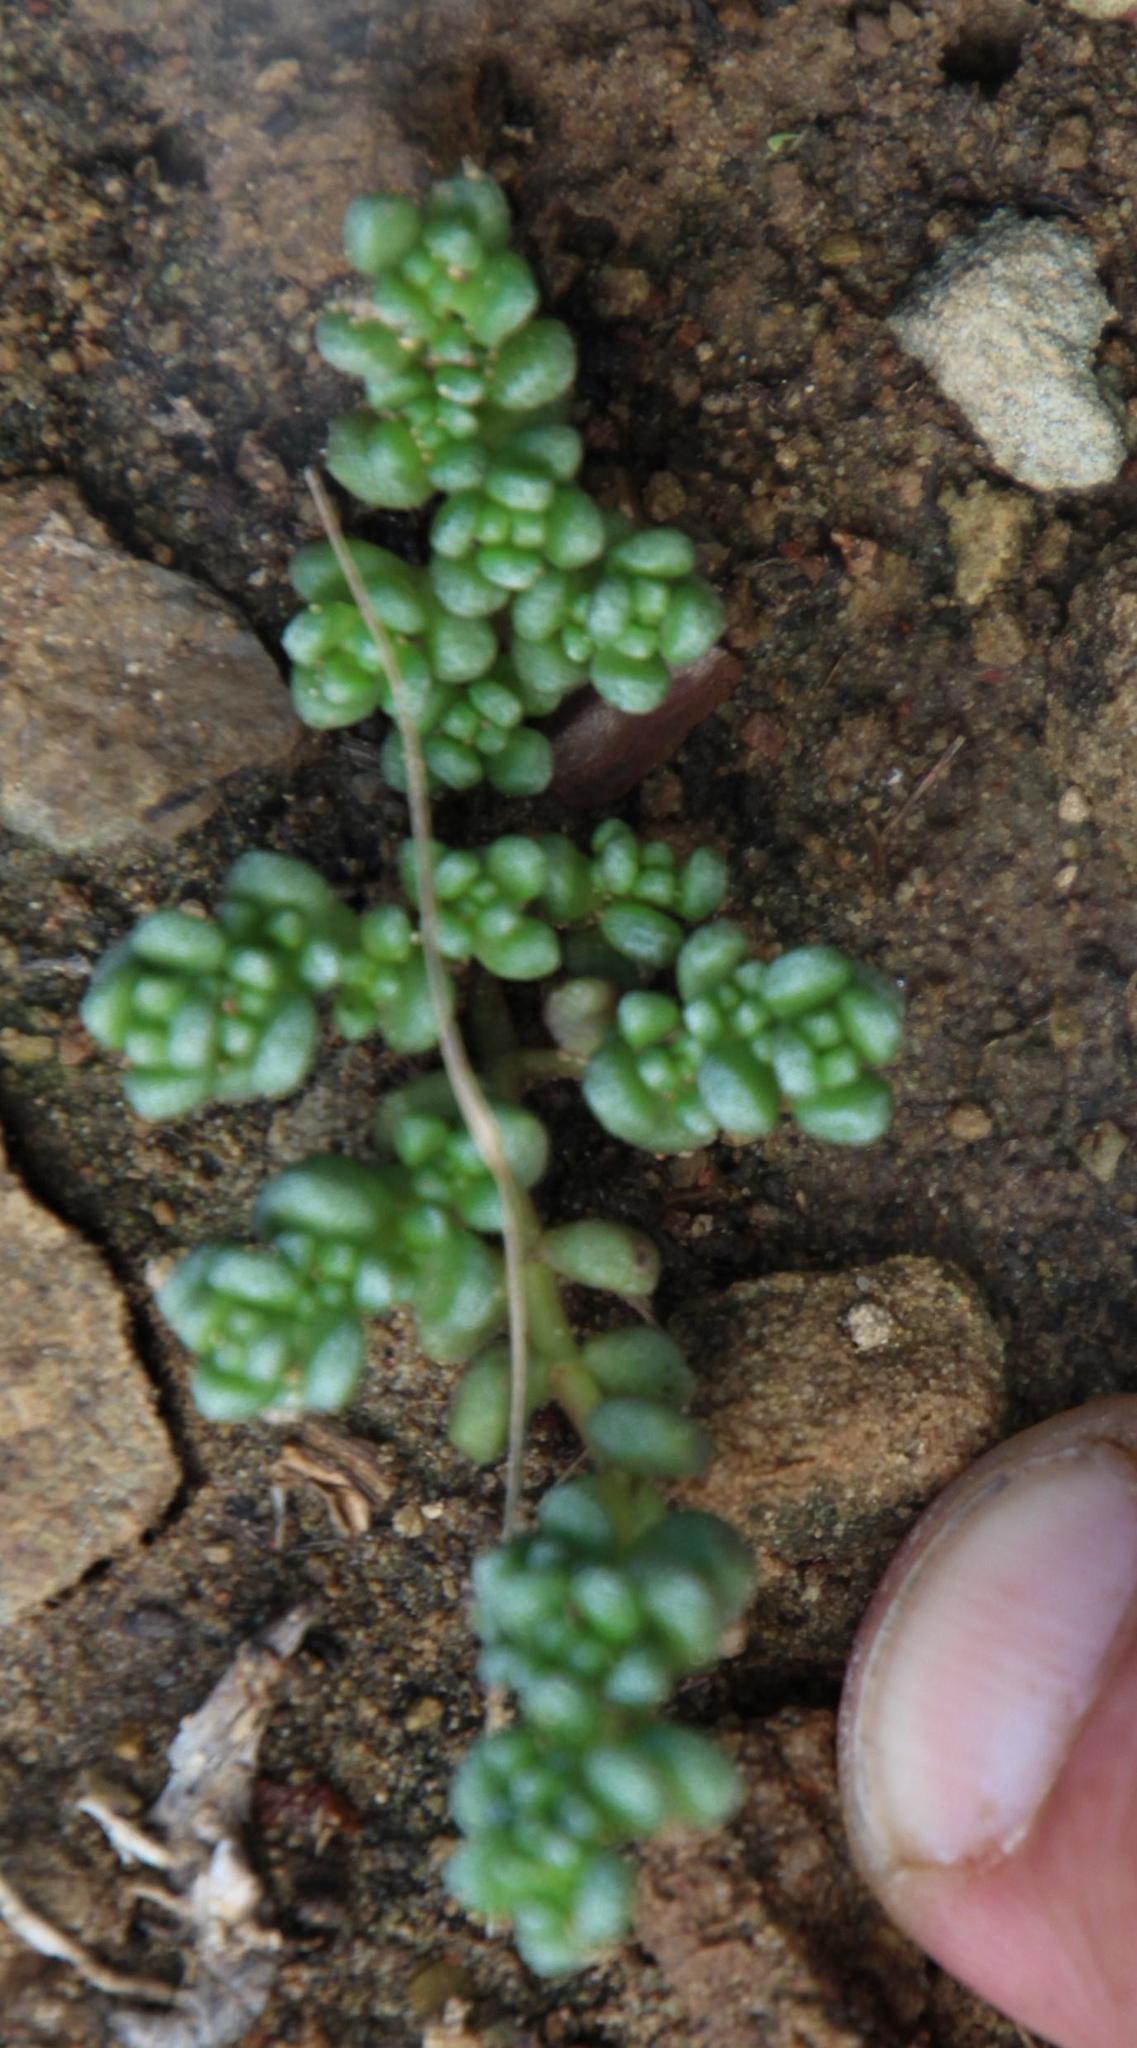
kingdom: Plantae
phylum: Tracheophyta
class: Magnoliopsida
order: Saxifragales
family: Crassulaceae
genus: Crassula
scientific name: Crassula corallina
